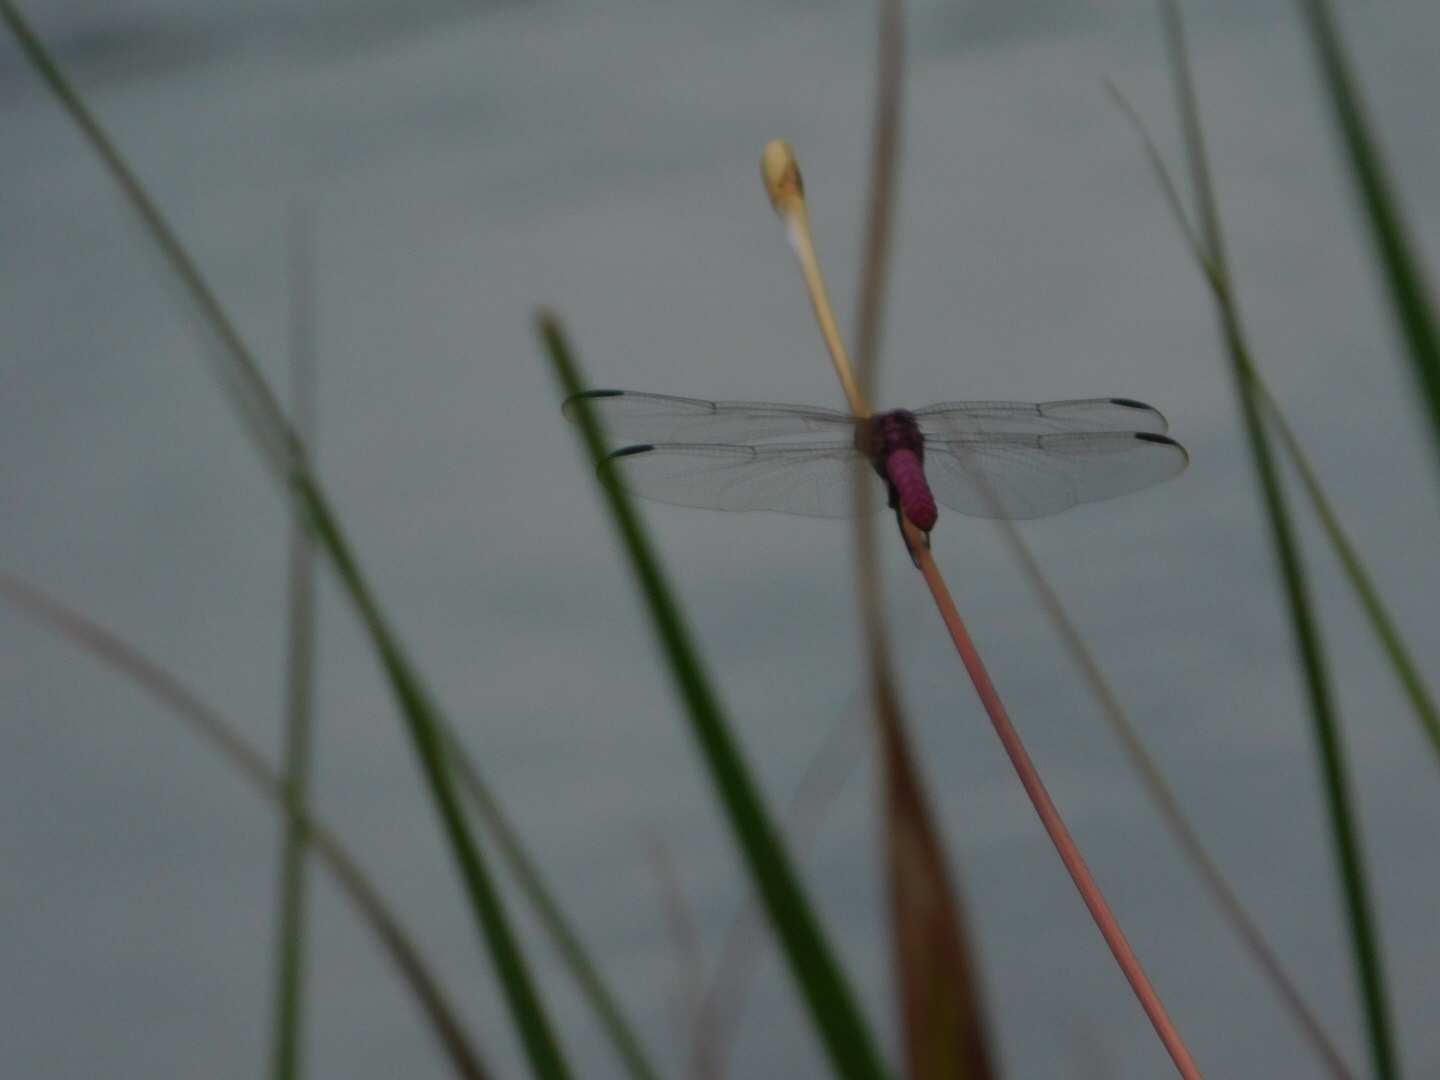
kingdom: Animalia
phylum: Arthropoda
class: Insecta
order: Odonata
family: Libellulidae
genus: Orthemis
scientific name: Orthemis ferruginea
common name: Roseate skimmer
